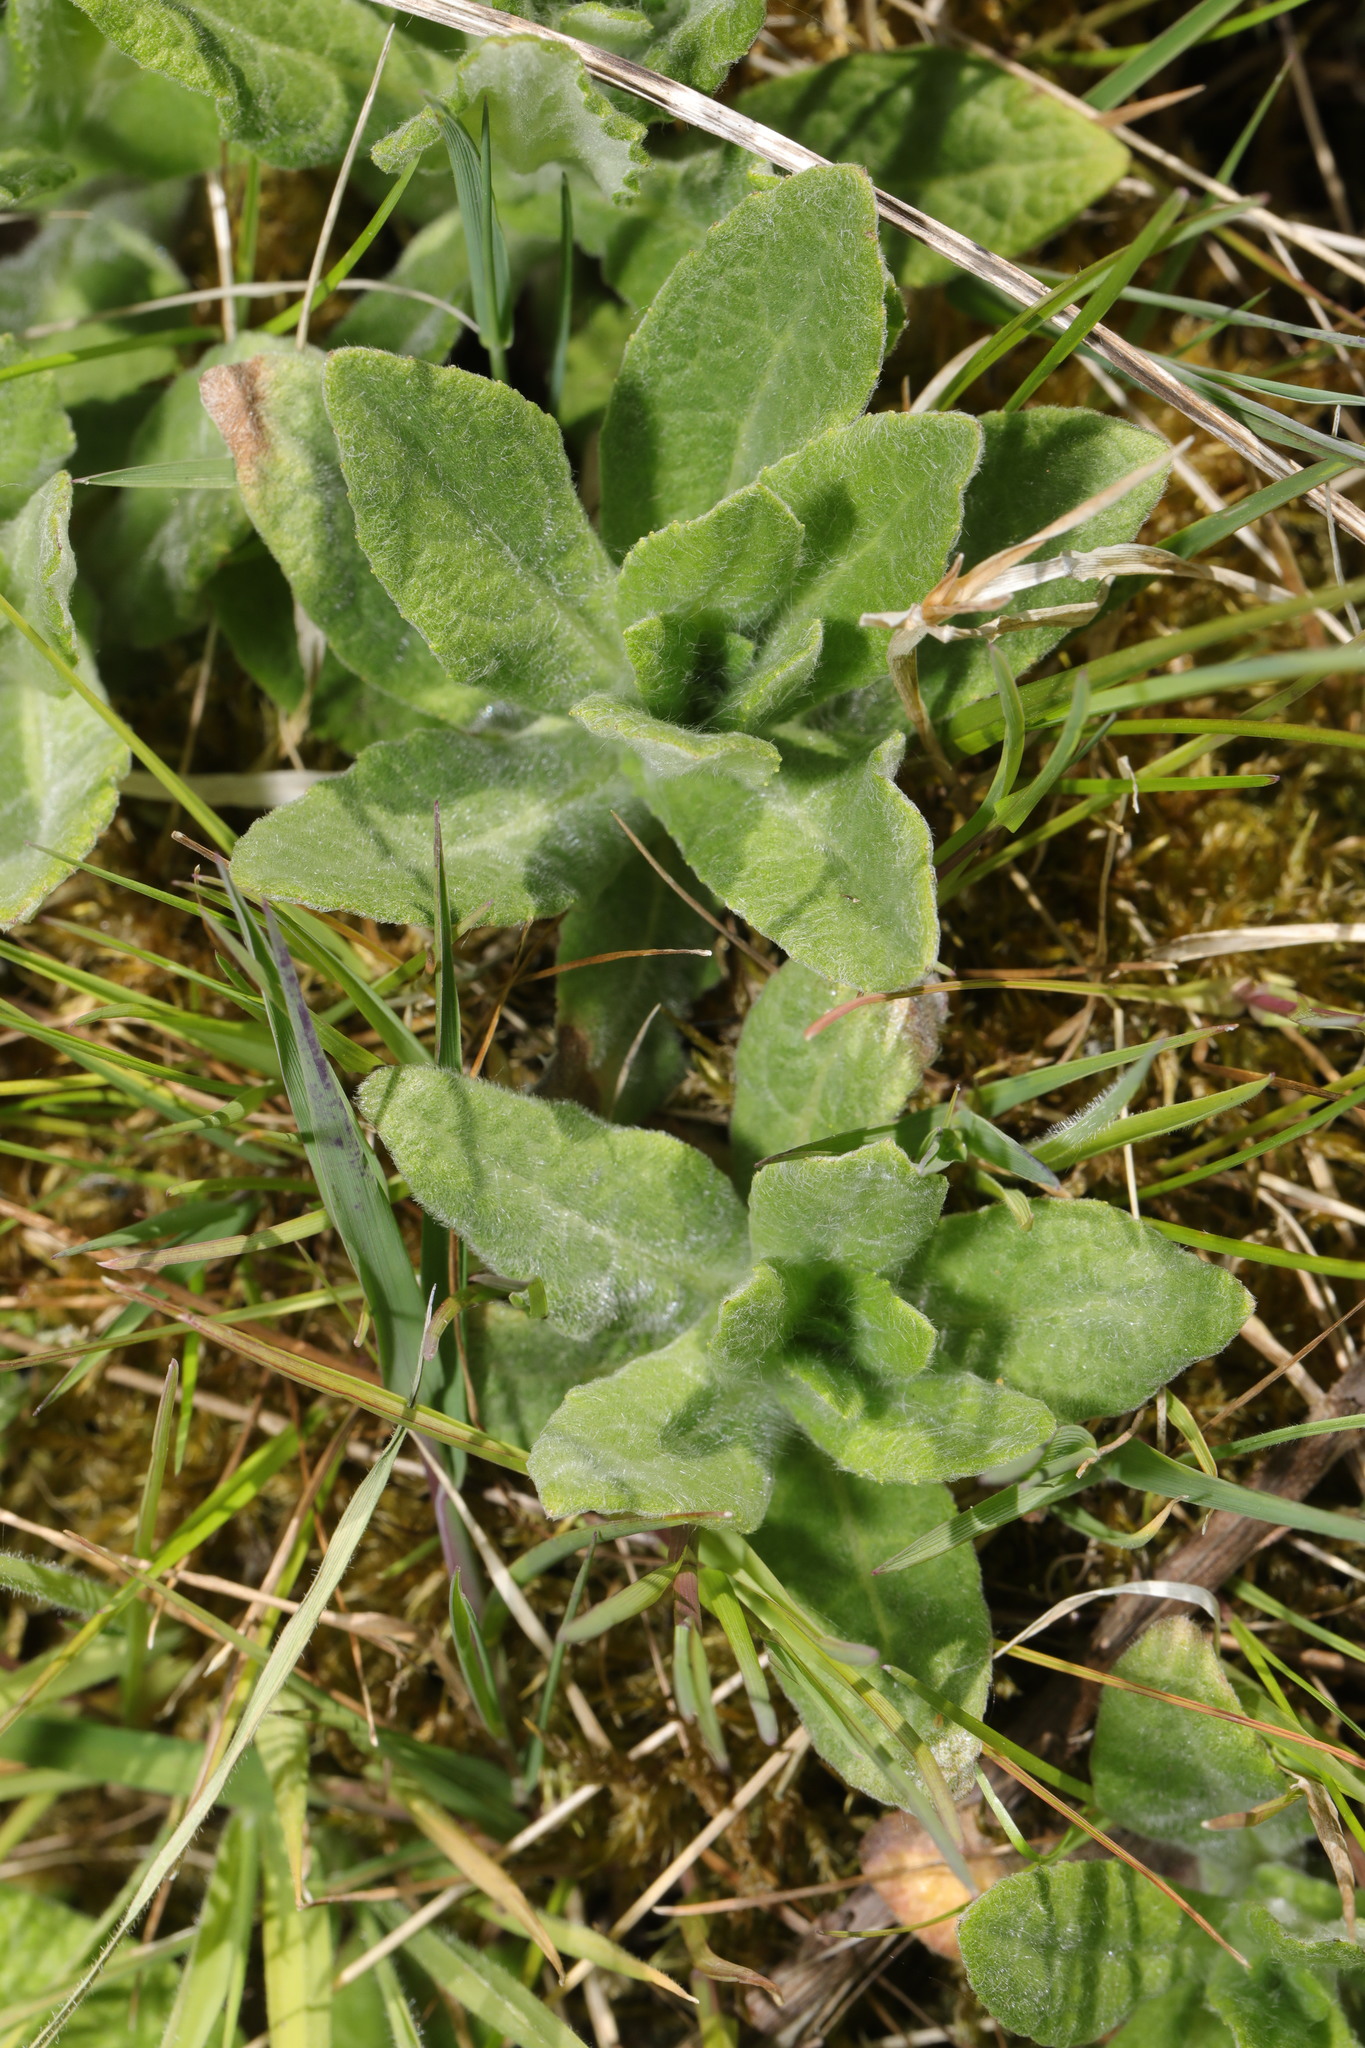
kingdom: Plantae
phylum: Tracheophyta
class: Magnoliopsida
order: Asterales
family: Asteraceae
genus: Pulicaria
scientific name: Pulicaria dysenterica
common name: Common fleabane
